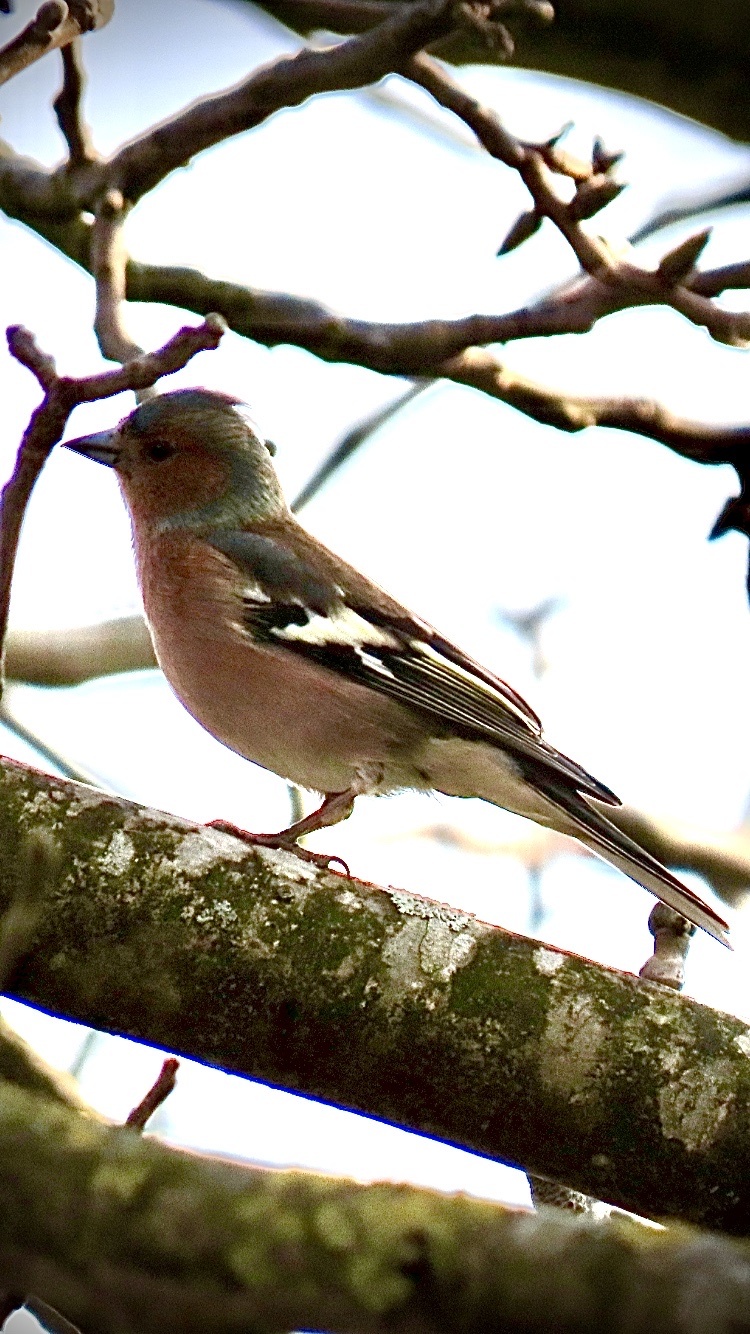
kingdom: Animalia
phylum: Chordata
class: Aves
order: Passeriformes
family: Fringillidae
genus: Fringilla
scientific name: Fringilla coelebs
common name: Common chaffinch
